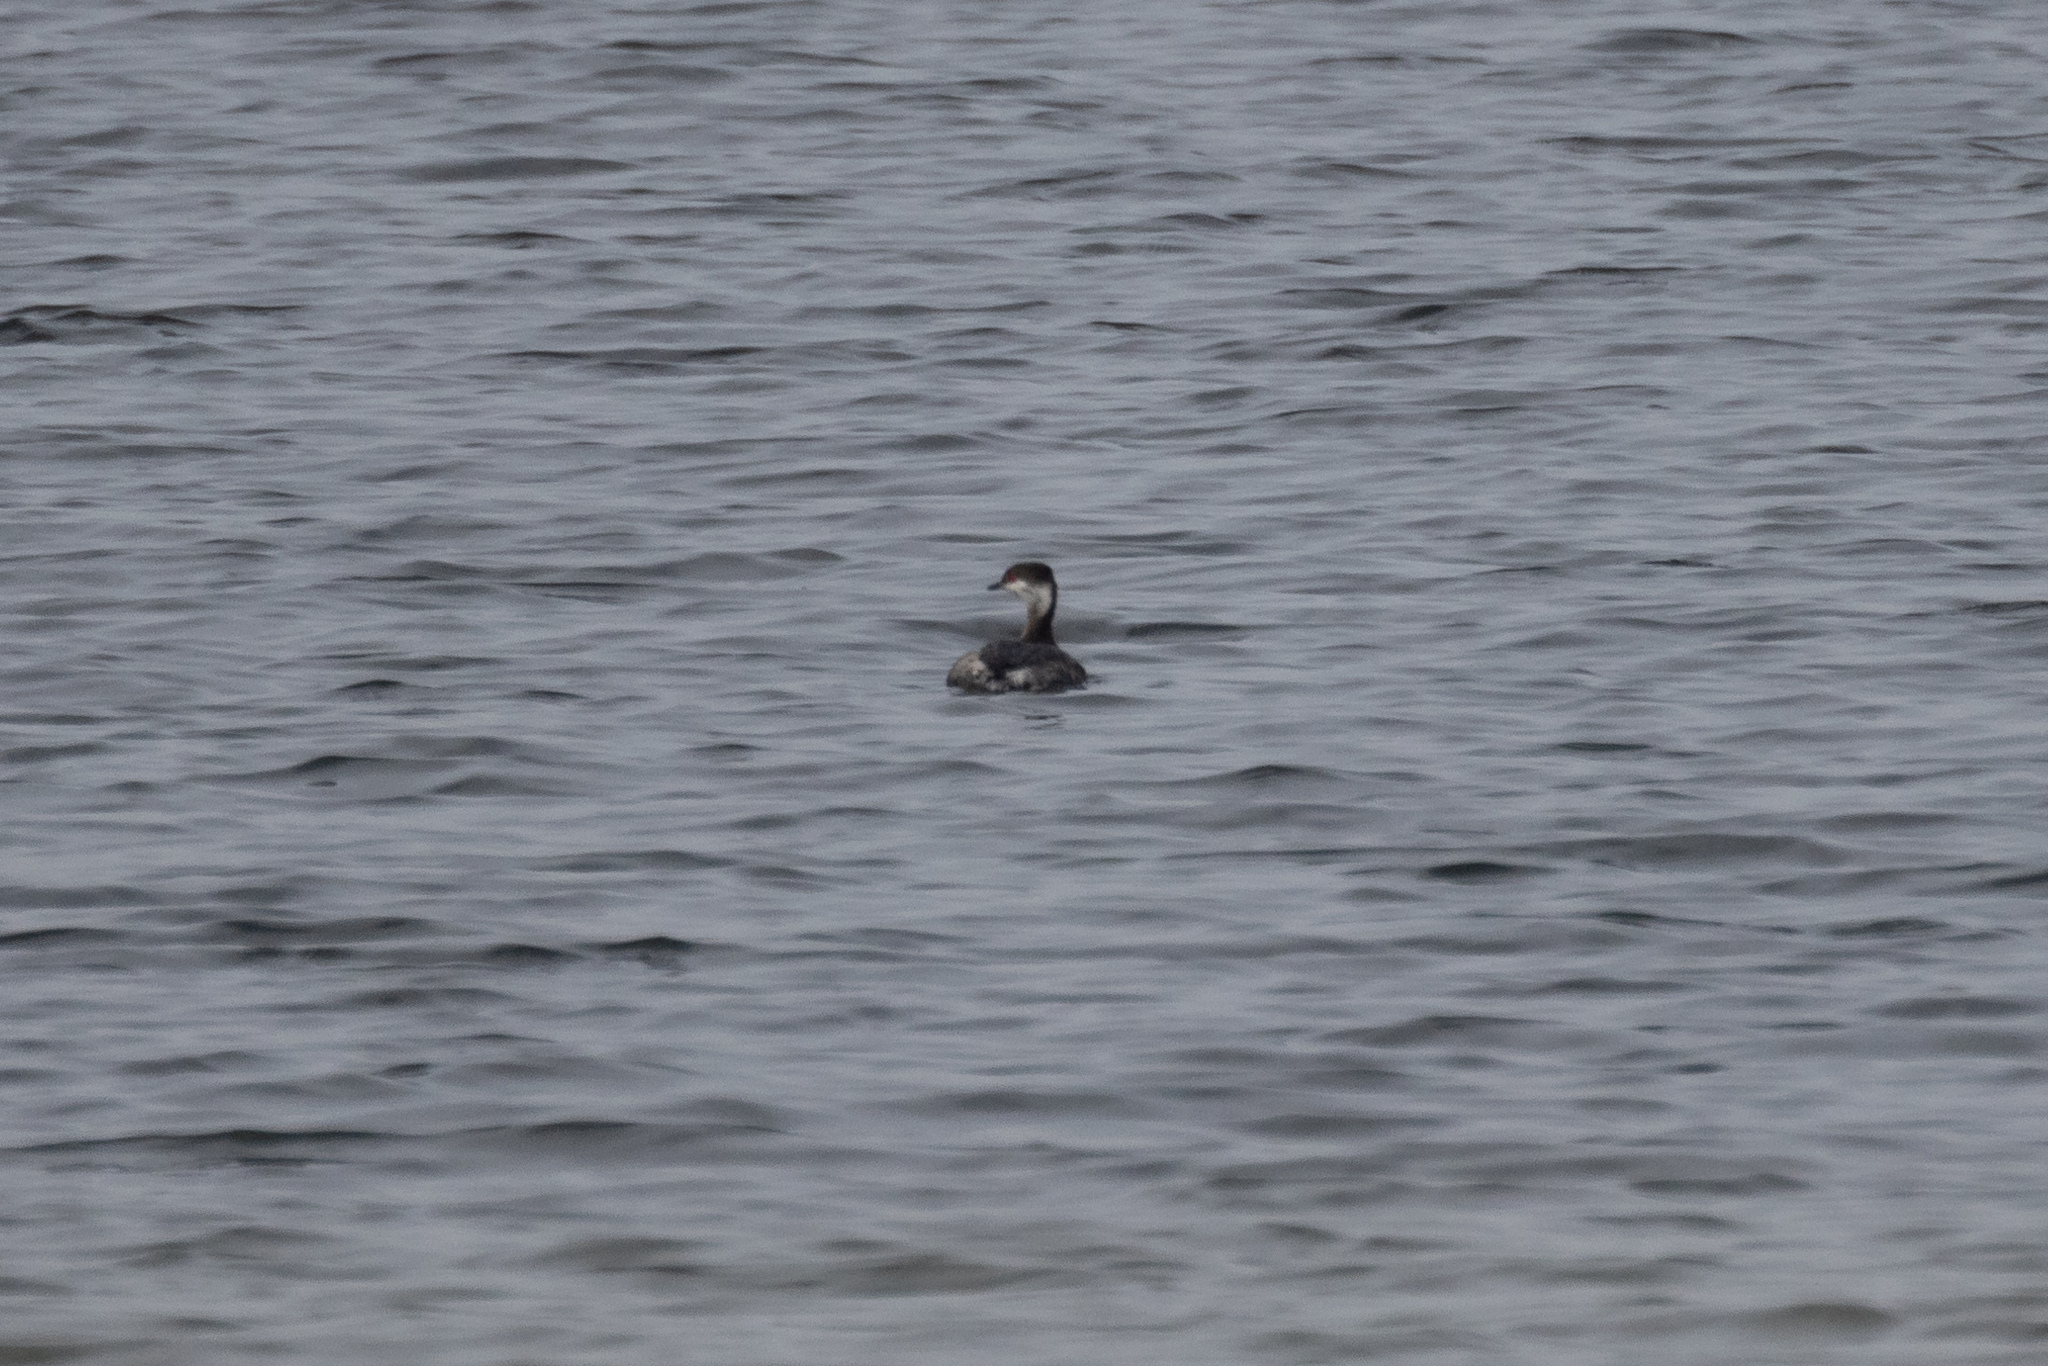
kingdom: Animalia
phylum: Chordata
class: Aves
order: Podicipediformes
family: Podicipedidae
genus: Podiceps
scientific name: Podiceps auritus
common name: Horned grebe
